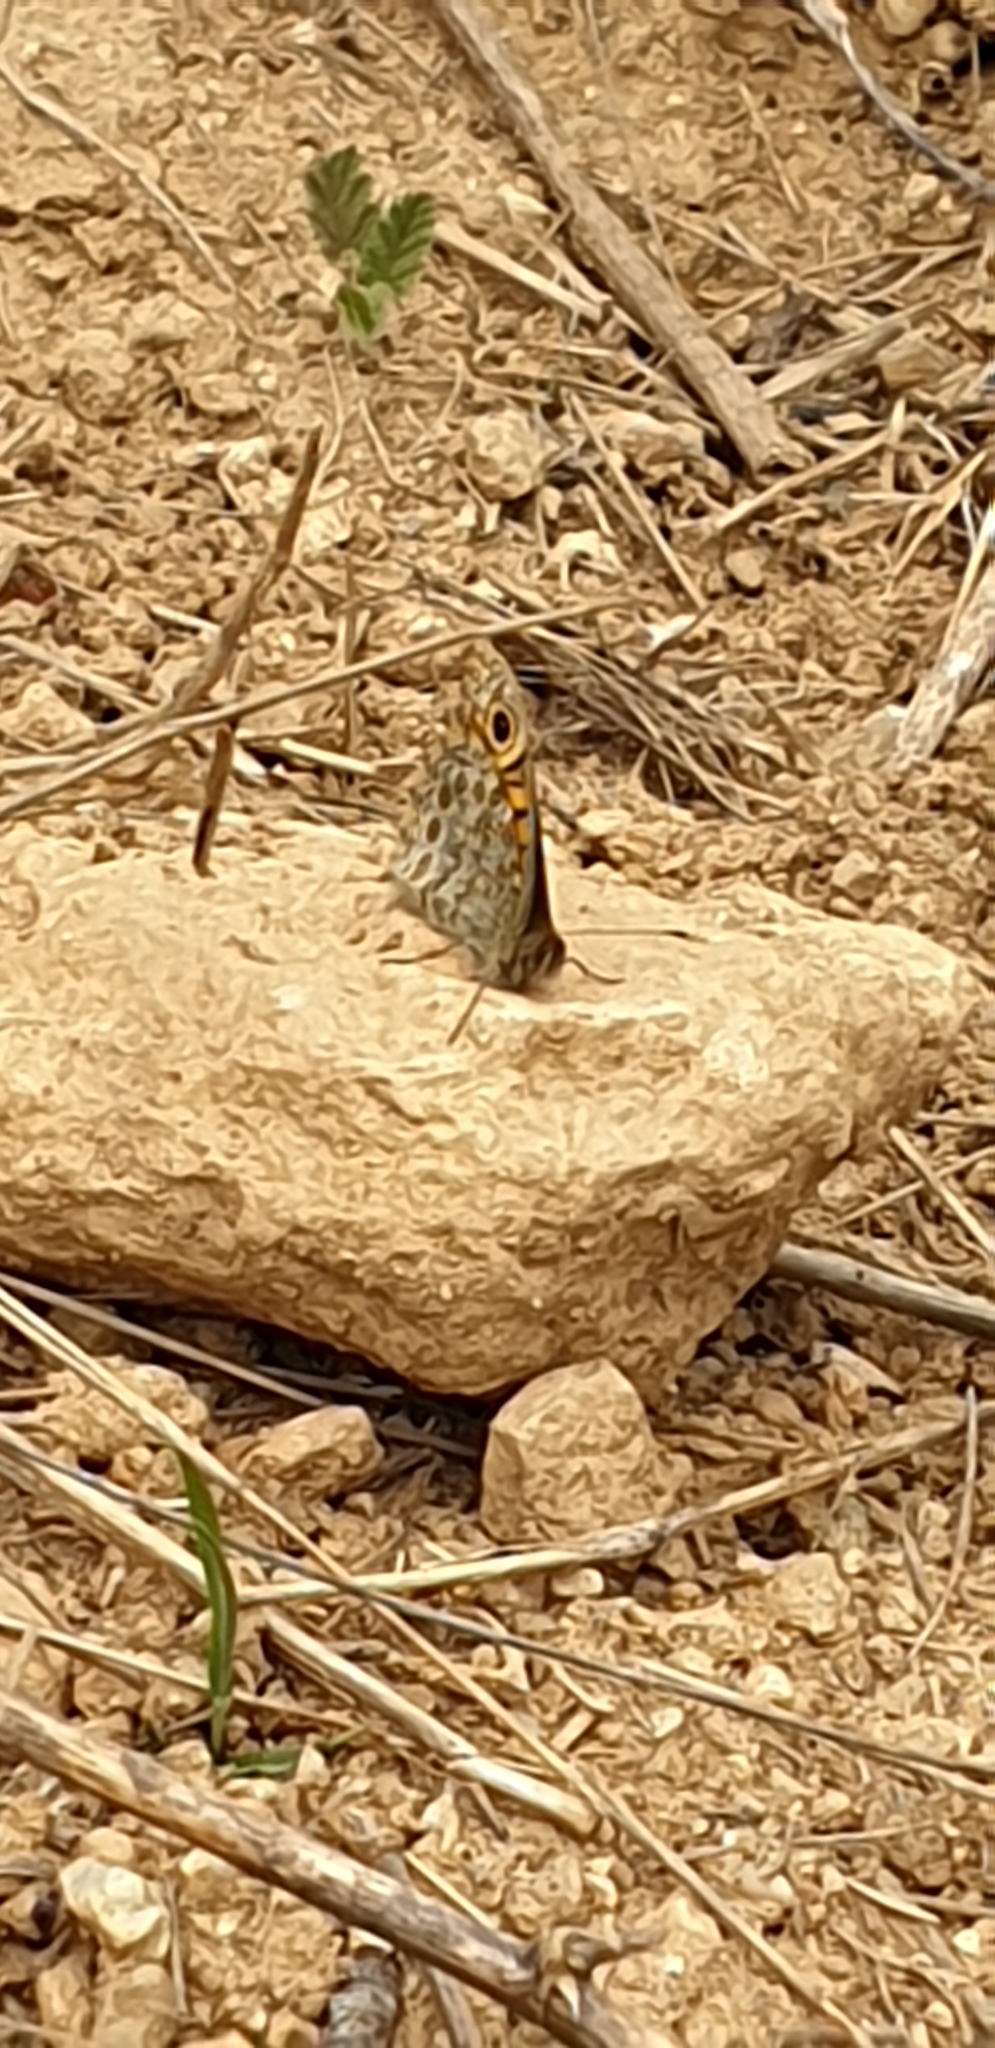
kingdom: Animalia
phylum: Arthropoda
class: Insecta
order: Lepidoptera
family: Nymphalidae
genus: Pararge
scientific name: Pararge Lasiommata megera
